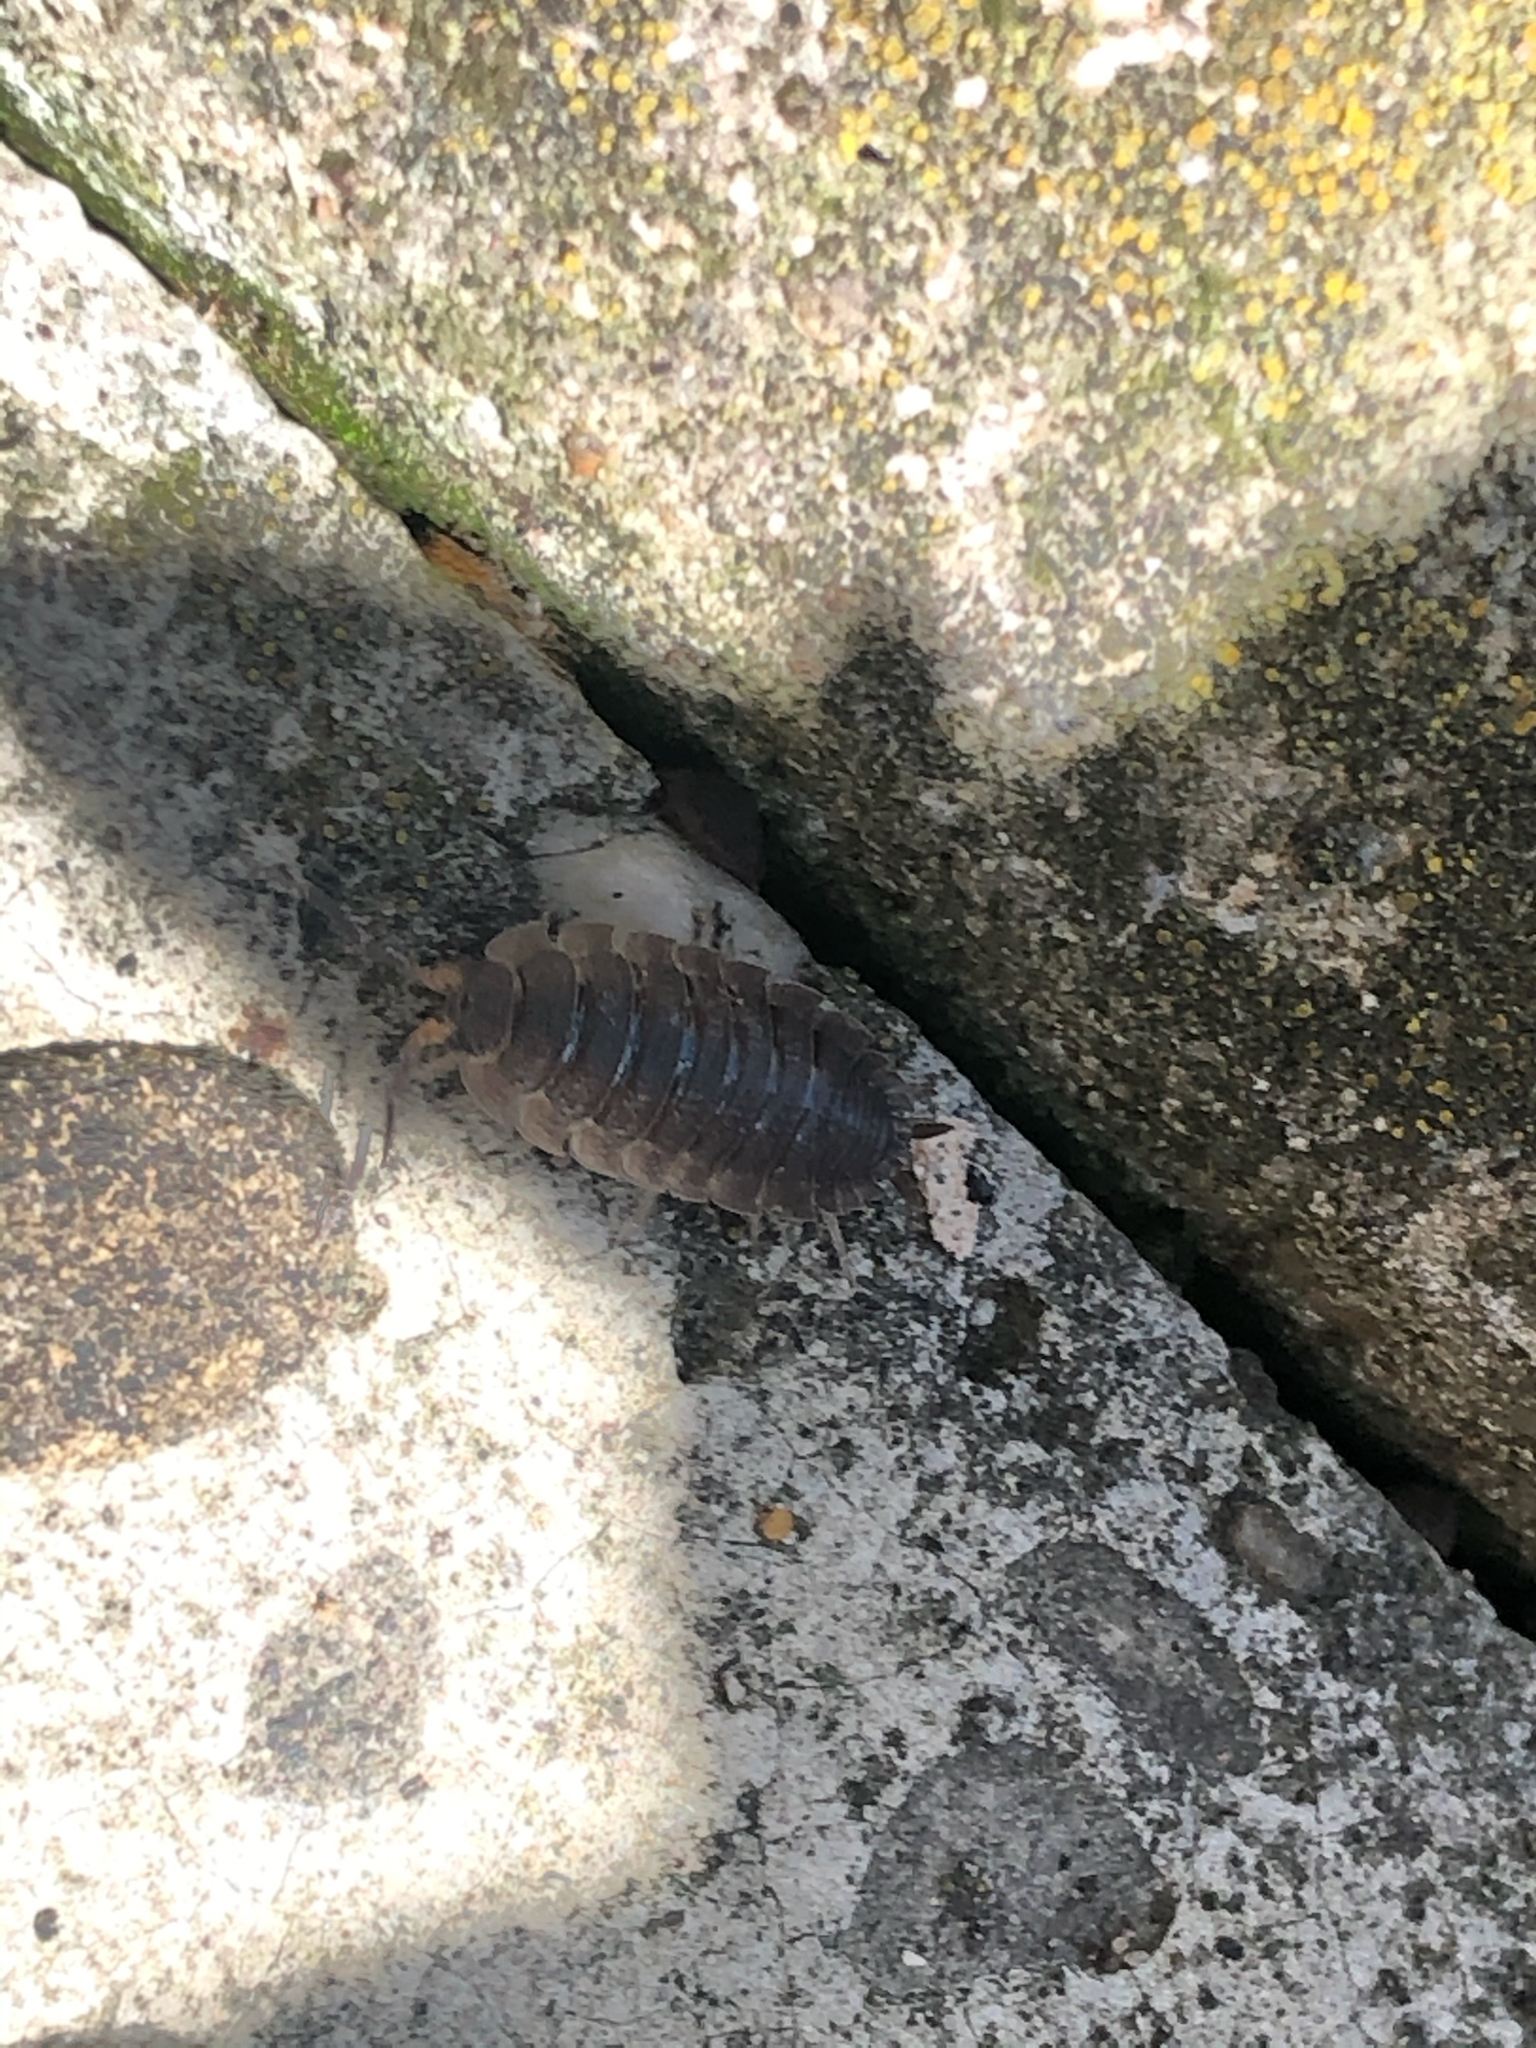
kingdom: Animalia
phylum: Arthropoda
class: Malacostraca
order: Isopoda
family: Porcellionidae
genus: Porcellio
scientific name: Porcellio scaber
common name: Common rough woodlouse
